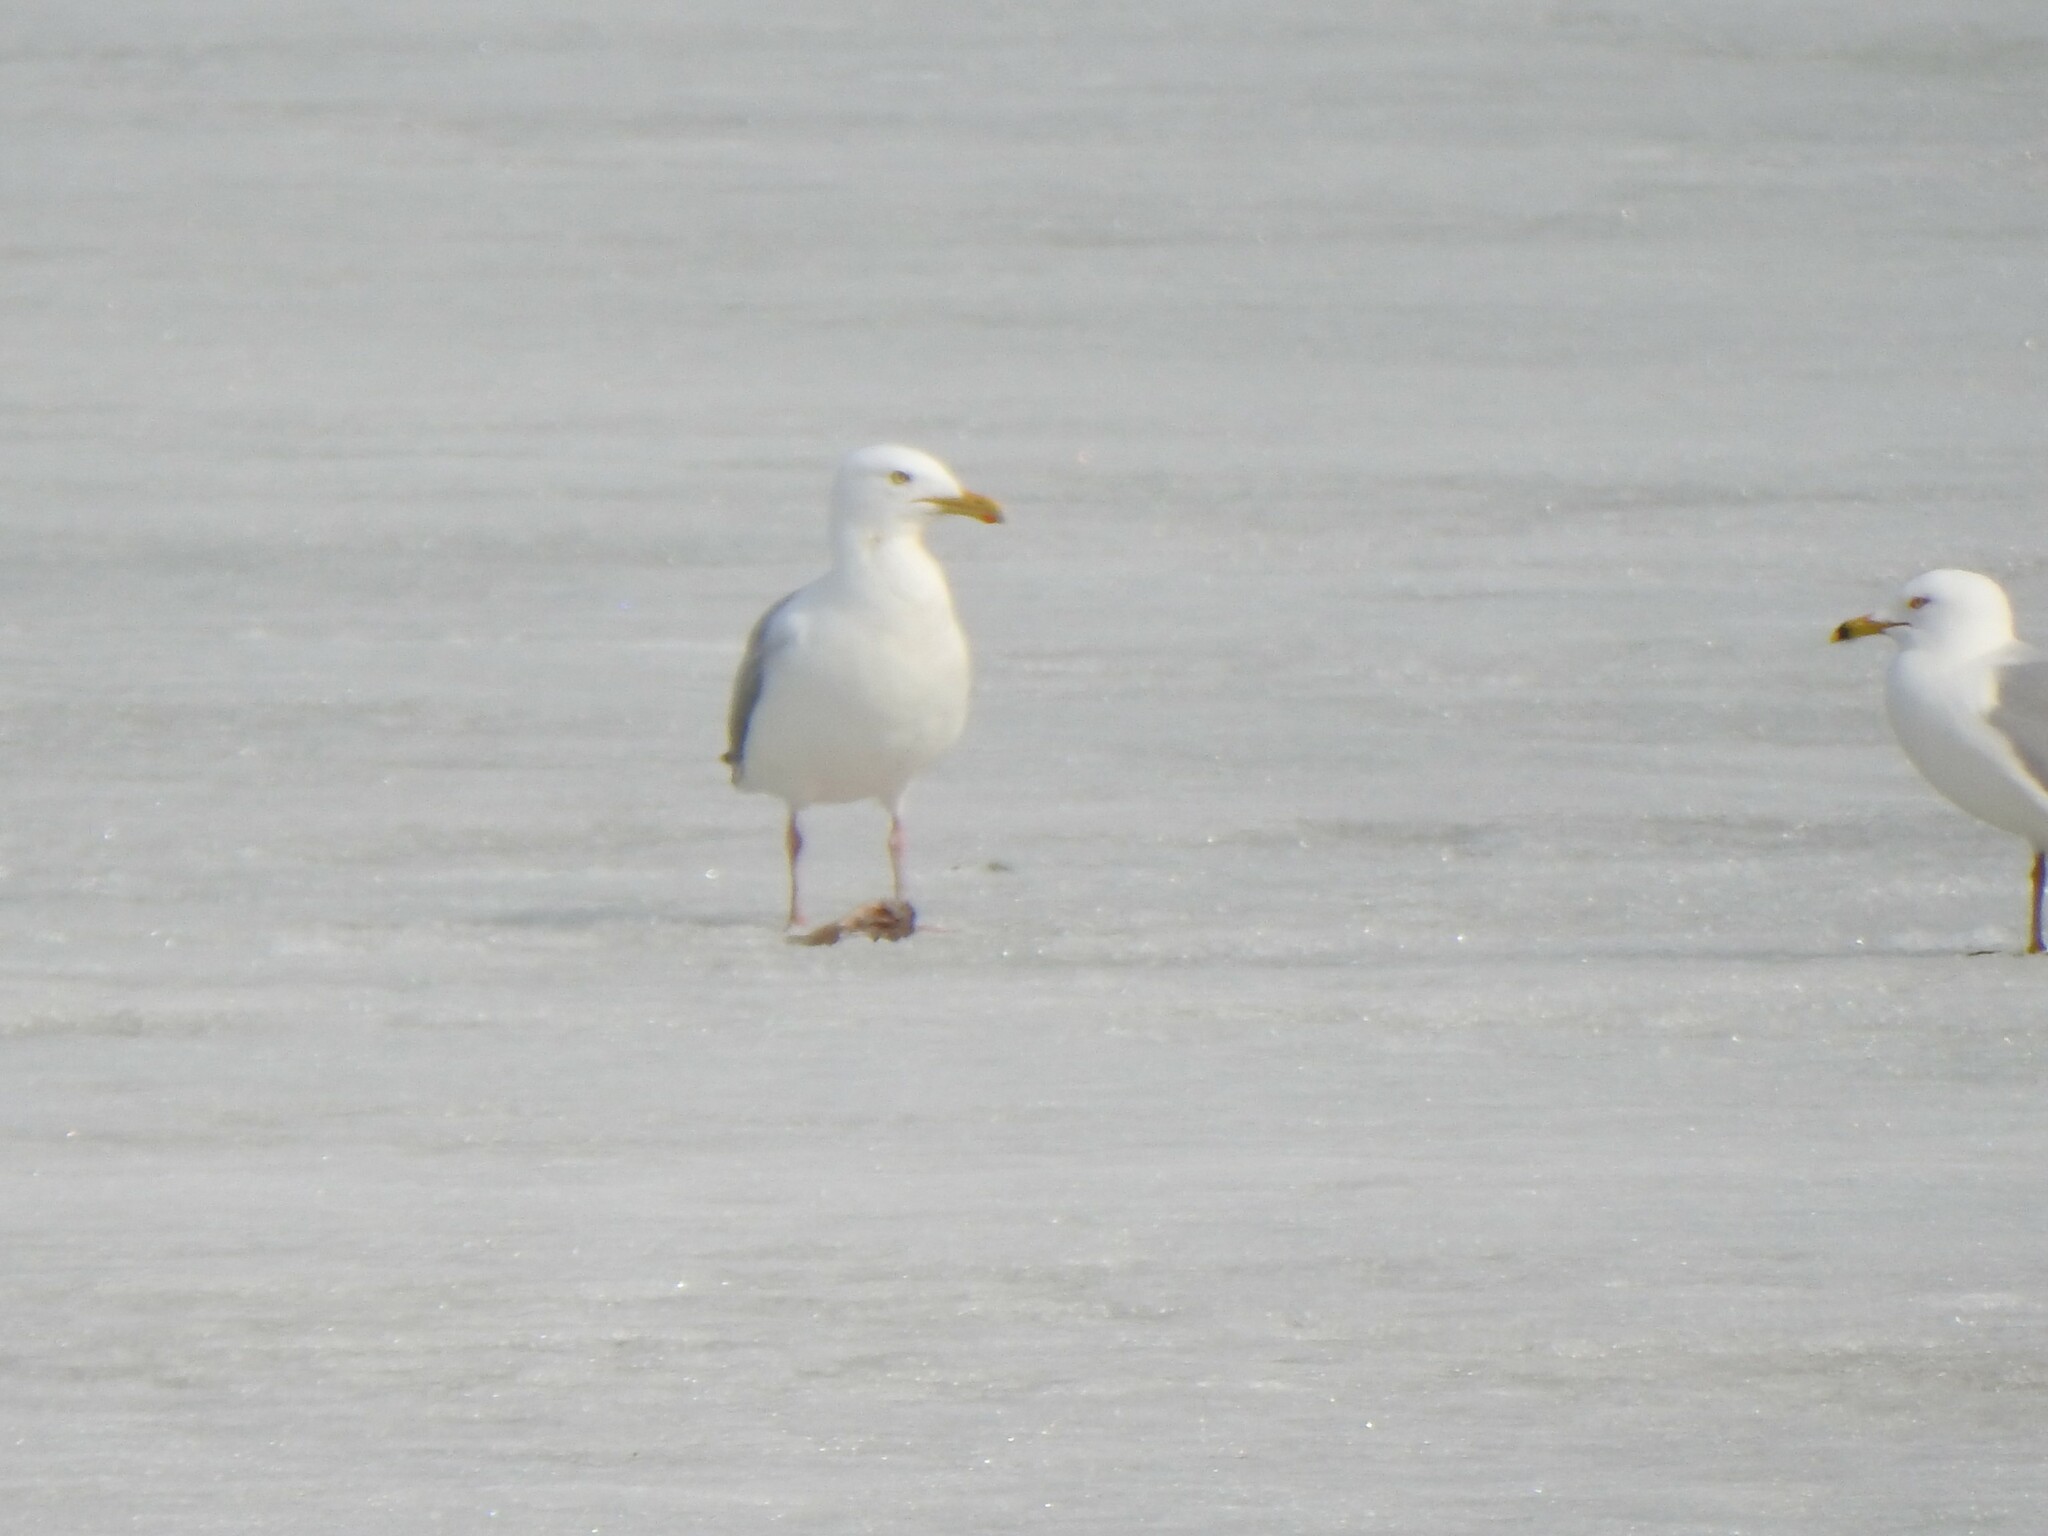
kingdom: Animalia
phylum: Chordata
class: Aves
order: Charadriiformes
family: Laridae
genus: Larus
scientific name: Larus argentatus
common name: Herring gull
